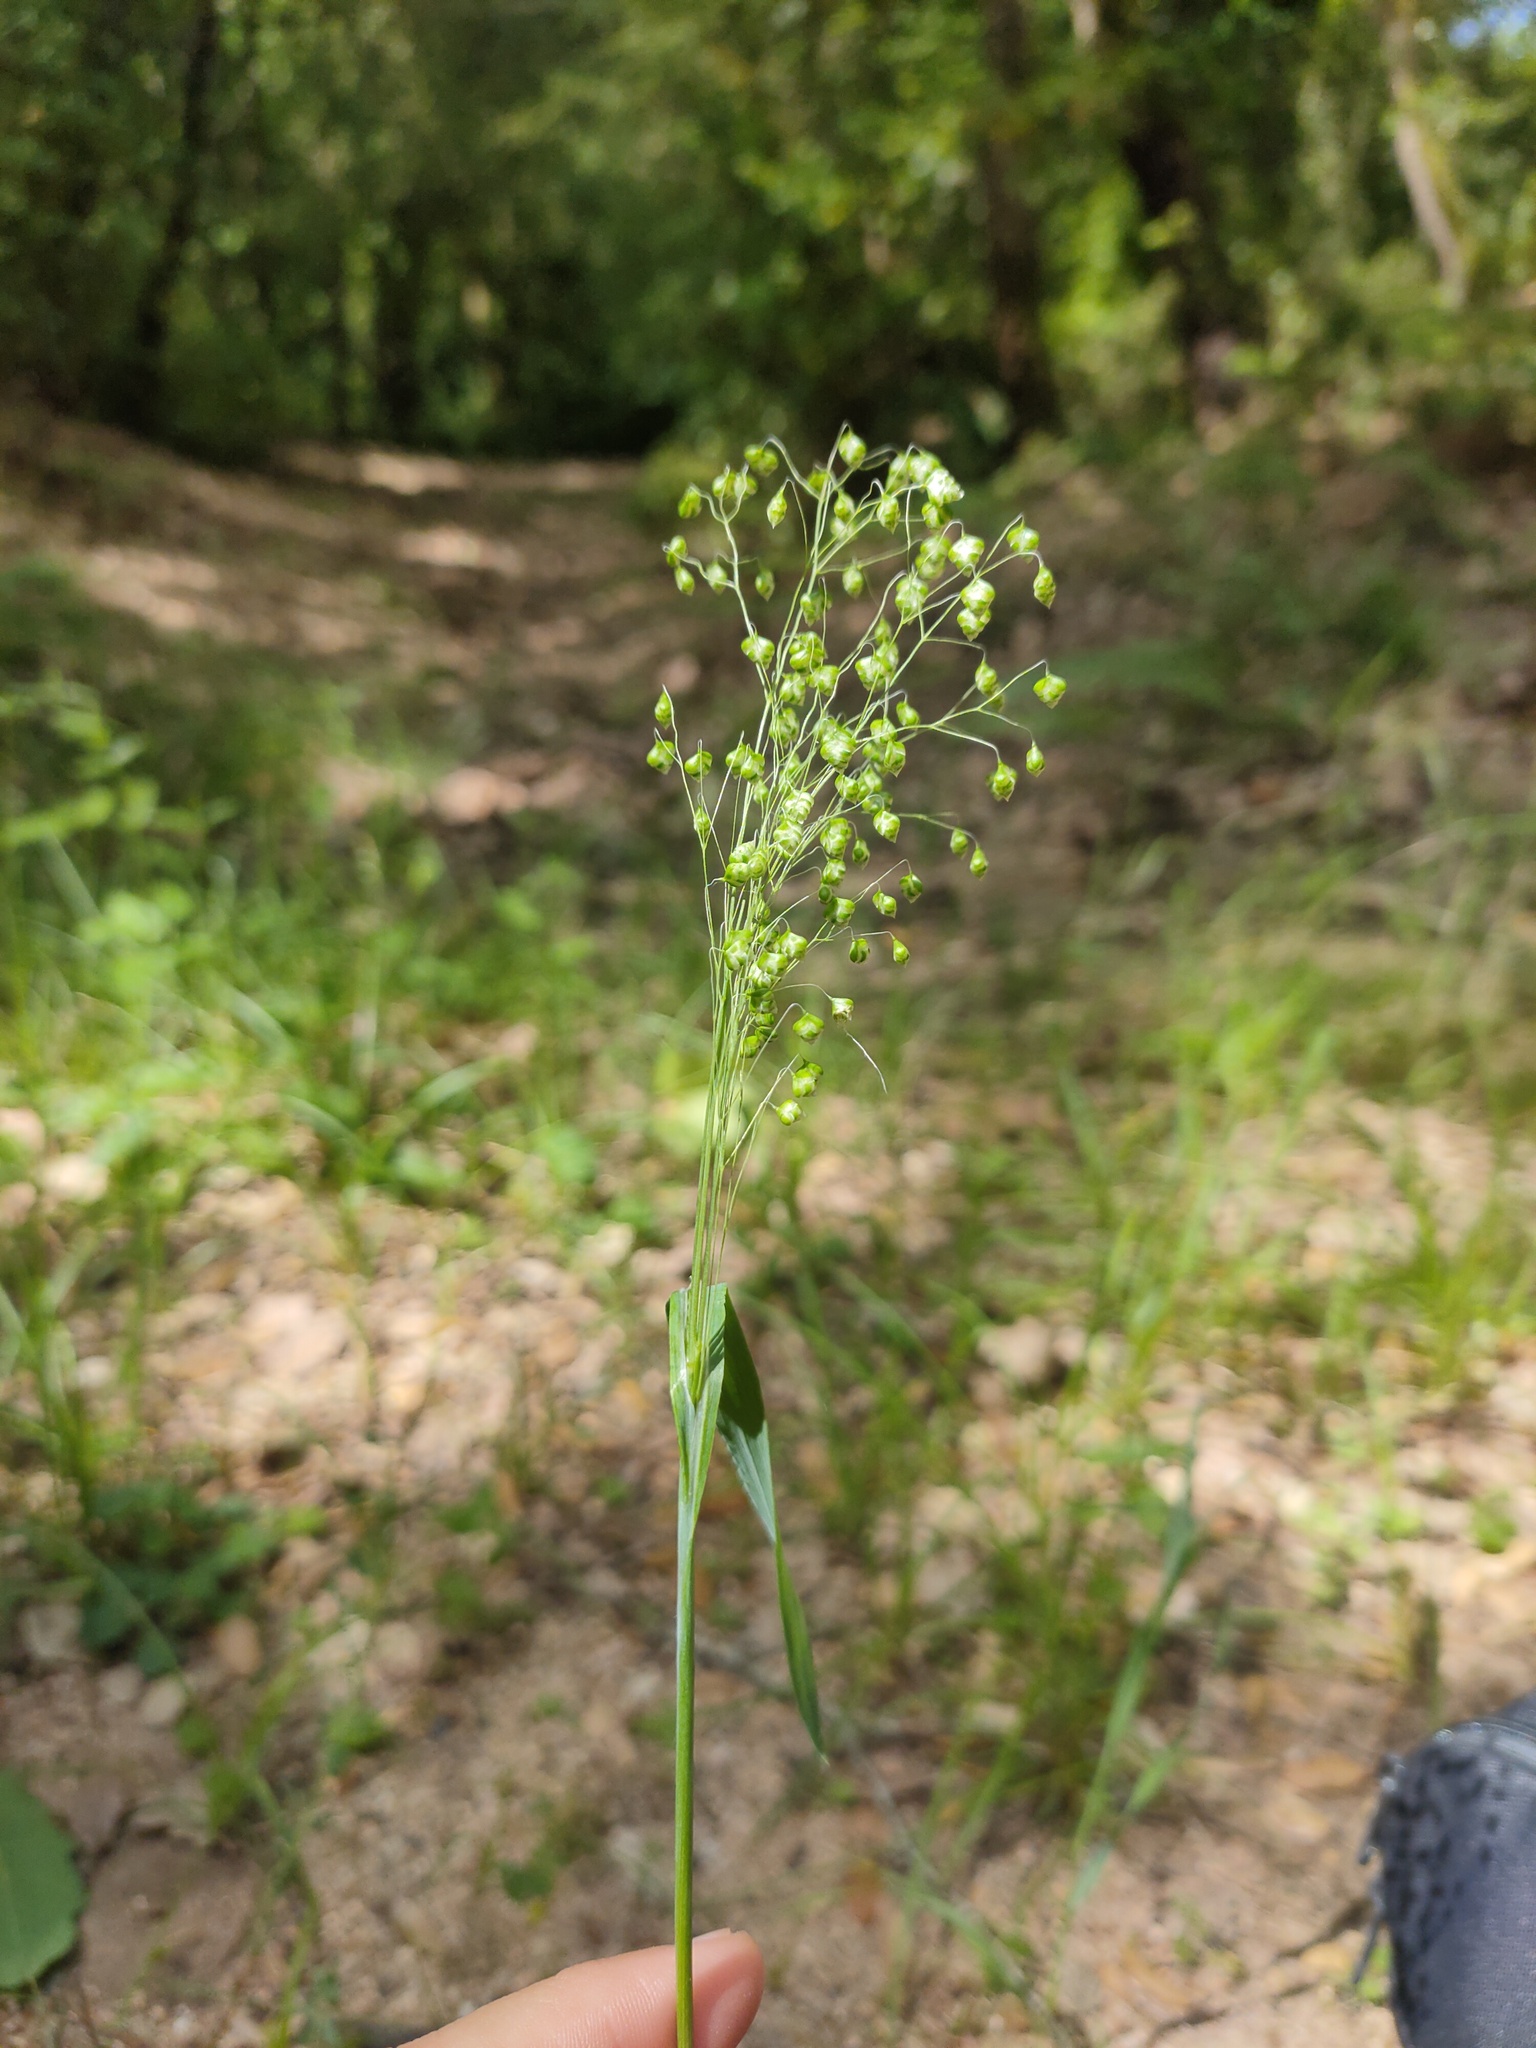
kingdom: Plantae
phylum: Tracheophyta
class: Liliopsida
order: Poales
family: Poaceae
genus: Briza
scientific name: Briza minor
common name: Lesser quaking-grass
